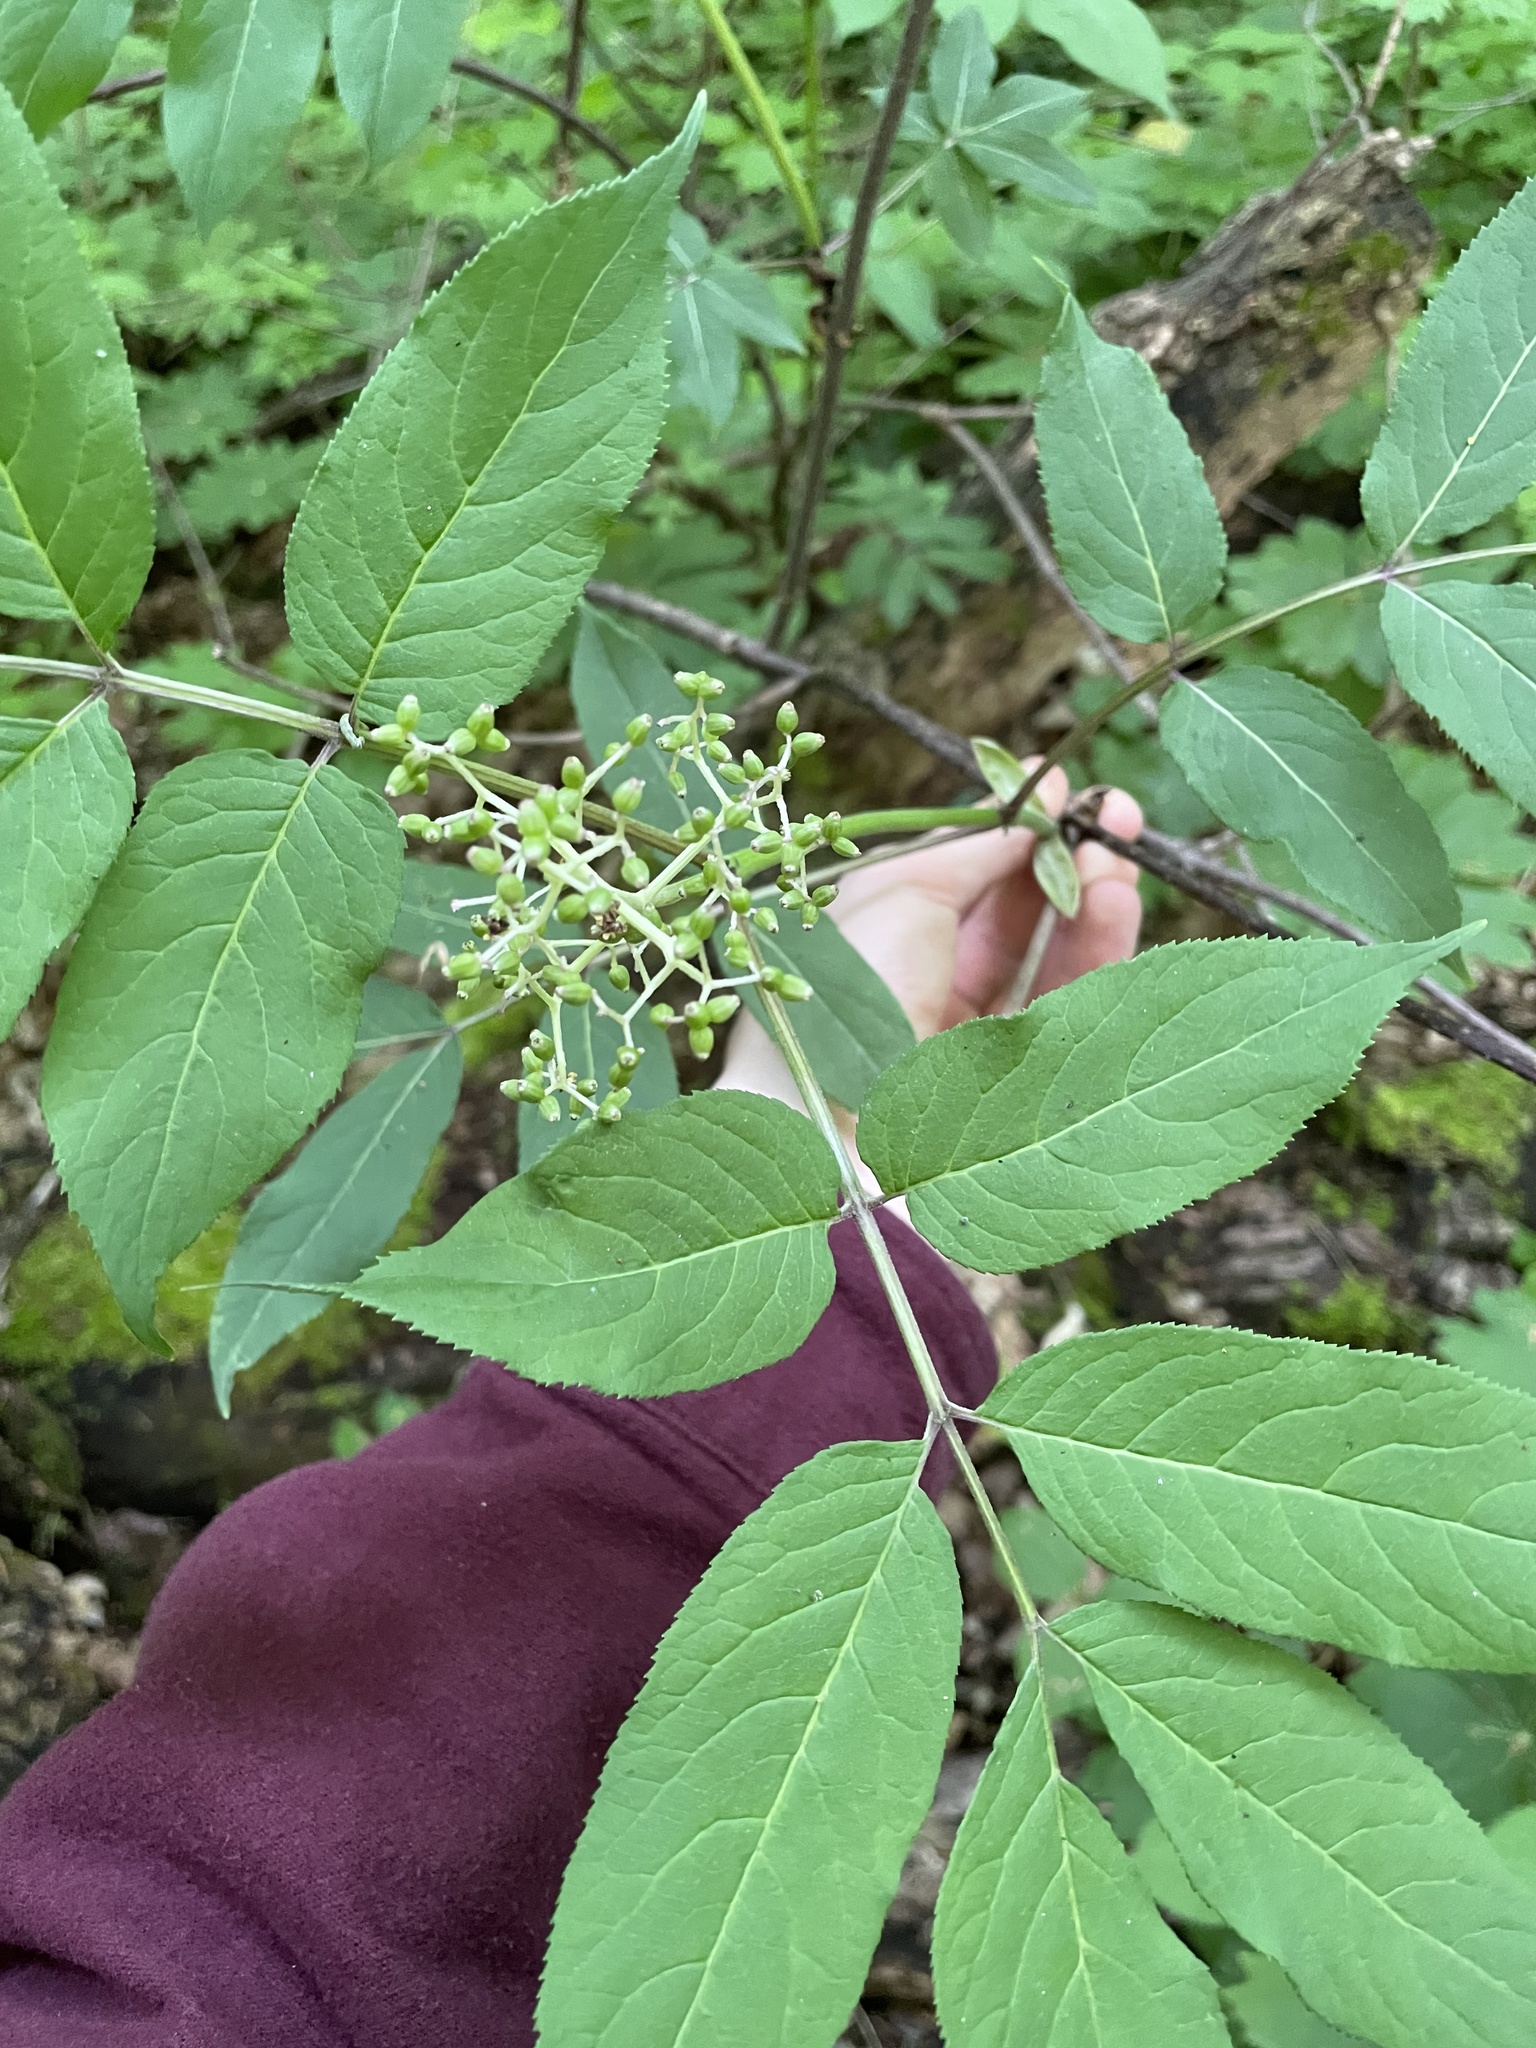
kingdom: Plantae
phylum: Tracheophyta
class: Magnoliopsida
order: Dipsacales
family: Viburnaceae
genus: Sambucus
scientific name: Sambucus racemosa
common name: Red-berried elder
